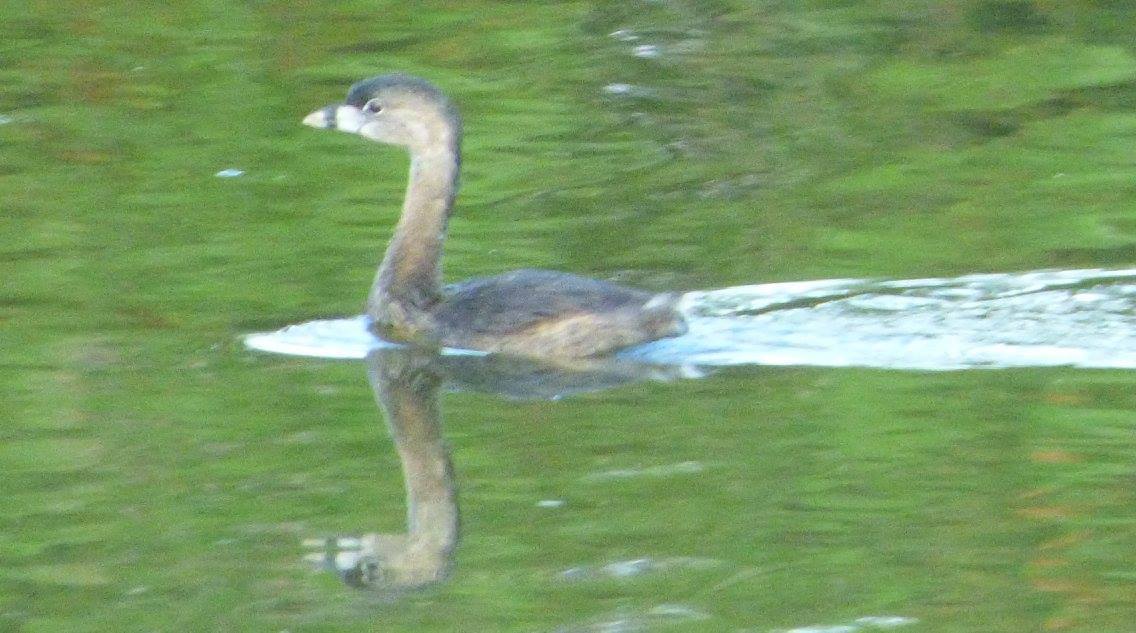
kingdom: Animalia
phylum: Chordata
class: Aves
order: Podicipediformes
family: Podicipedidae
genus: Podilymbus
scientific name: Podilymbus podiceps
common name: Pied-billed grebe
